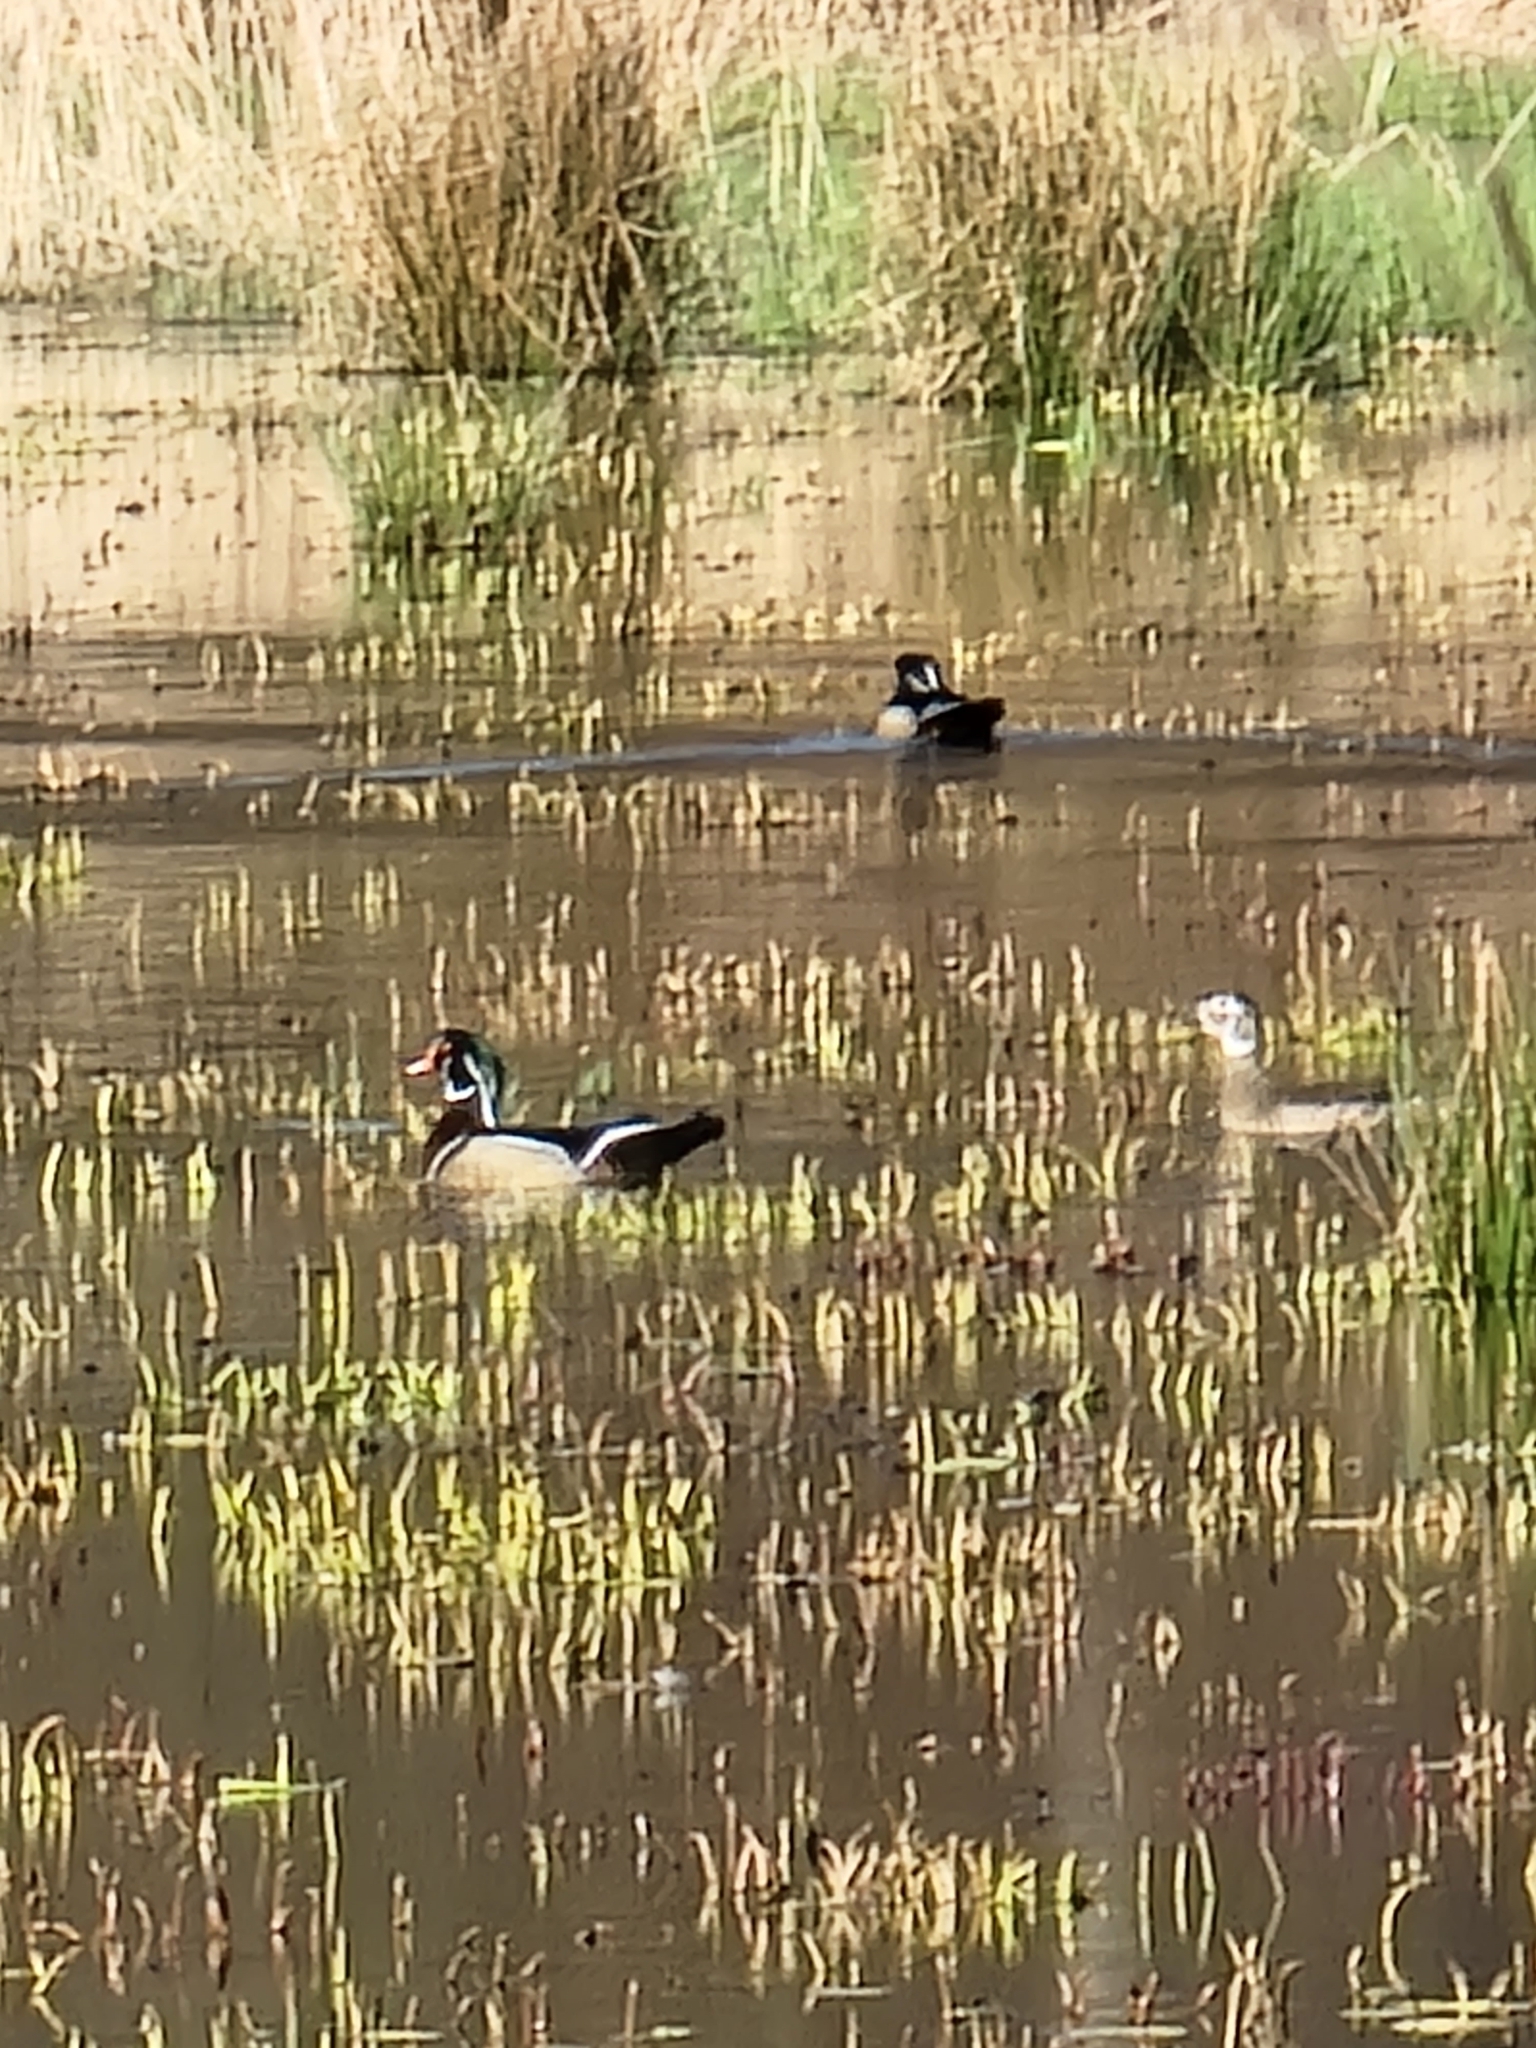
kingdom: Animalia
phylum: Chordata
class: Aves
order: Anseriformes
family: Anatidae
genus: Aix
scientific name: Aix sponsa
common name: Wood duck
